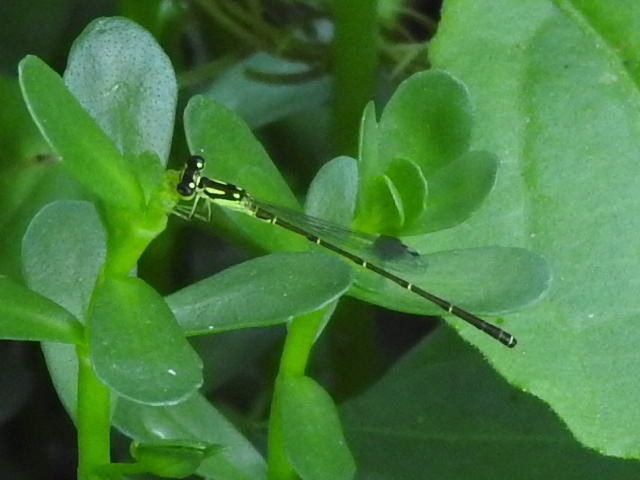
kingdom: Animalia
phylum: Arthropoda
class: Insecta
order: Odonata
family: Coenagrionidae
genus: Ischnura
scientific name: Ischnura posita
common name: Fragile forktail
